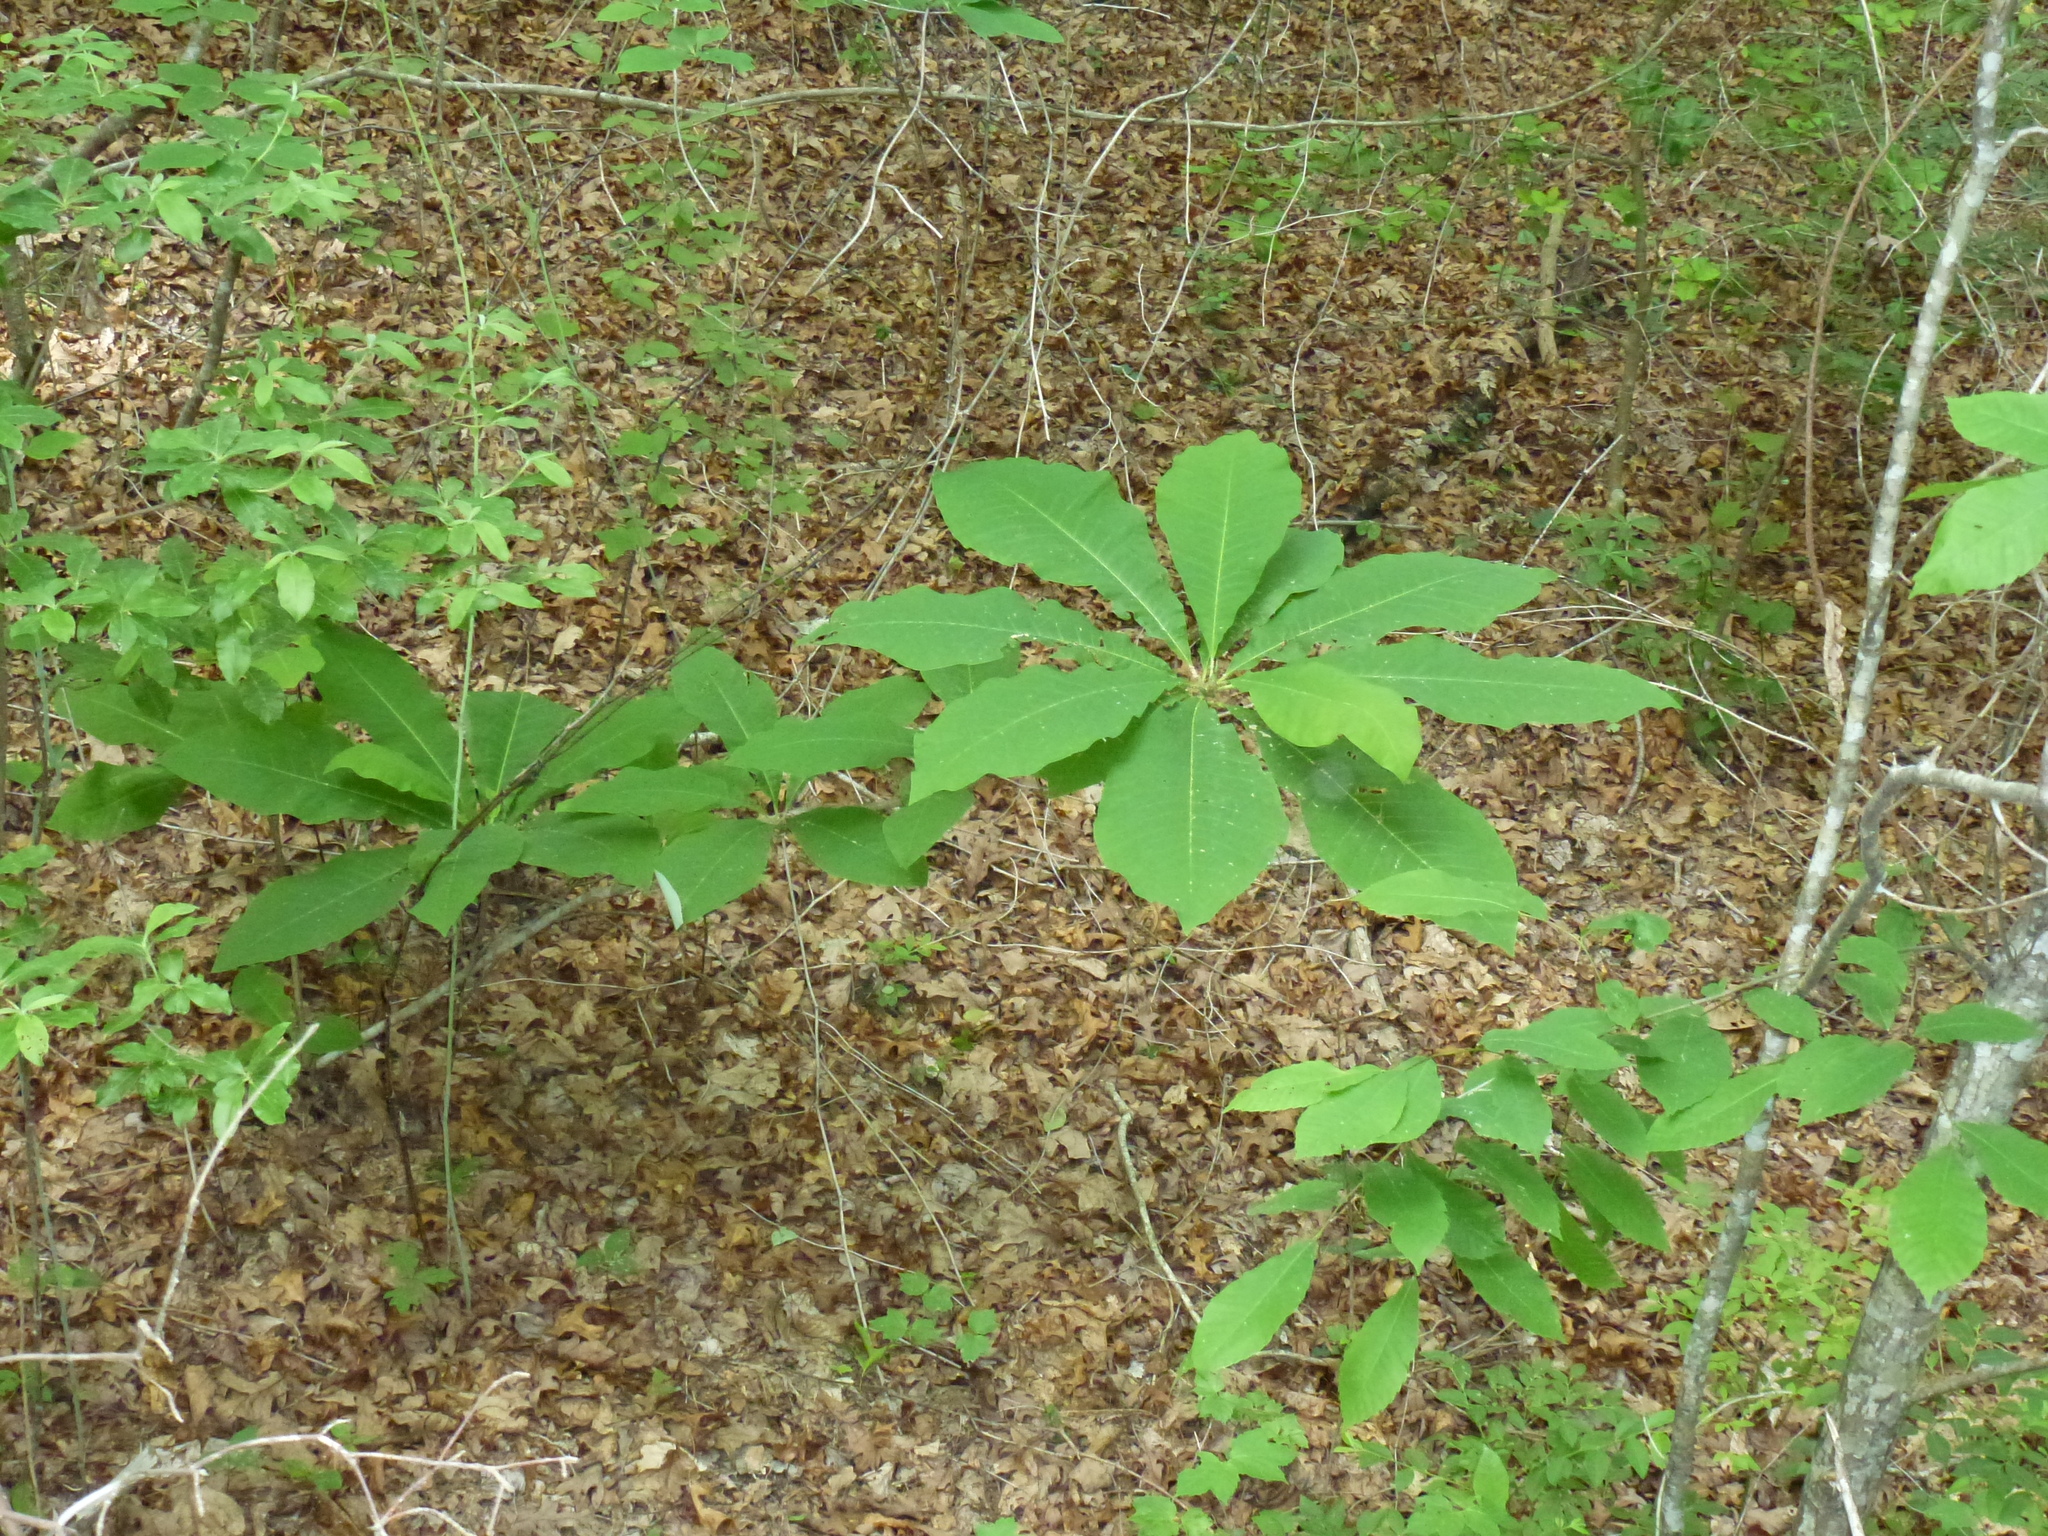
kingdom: Plantae
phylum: Tracheophyta
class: Magnoliopsida
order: Magnoliales
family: Magnoliaceae
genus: Magnolia
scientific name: Magnolia tripetala
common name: Umbrella magnolia
